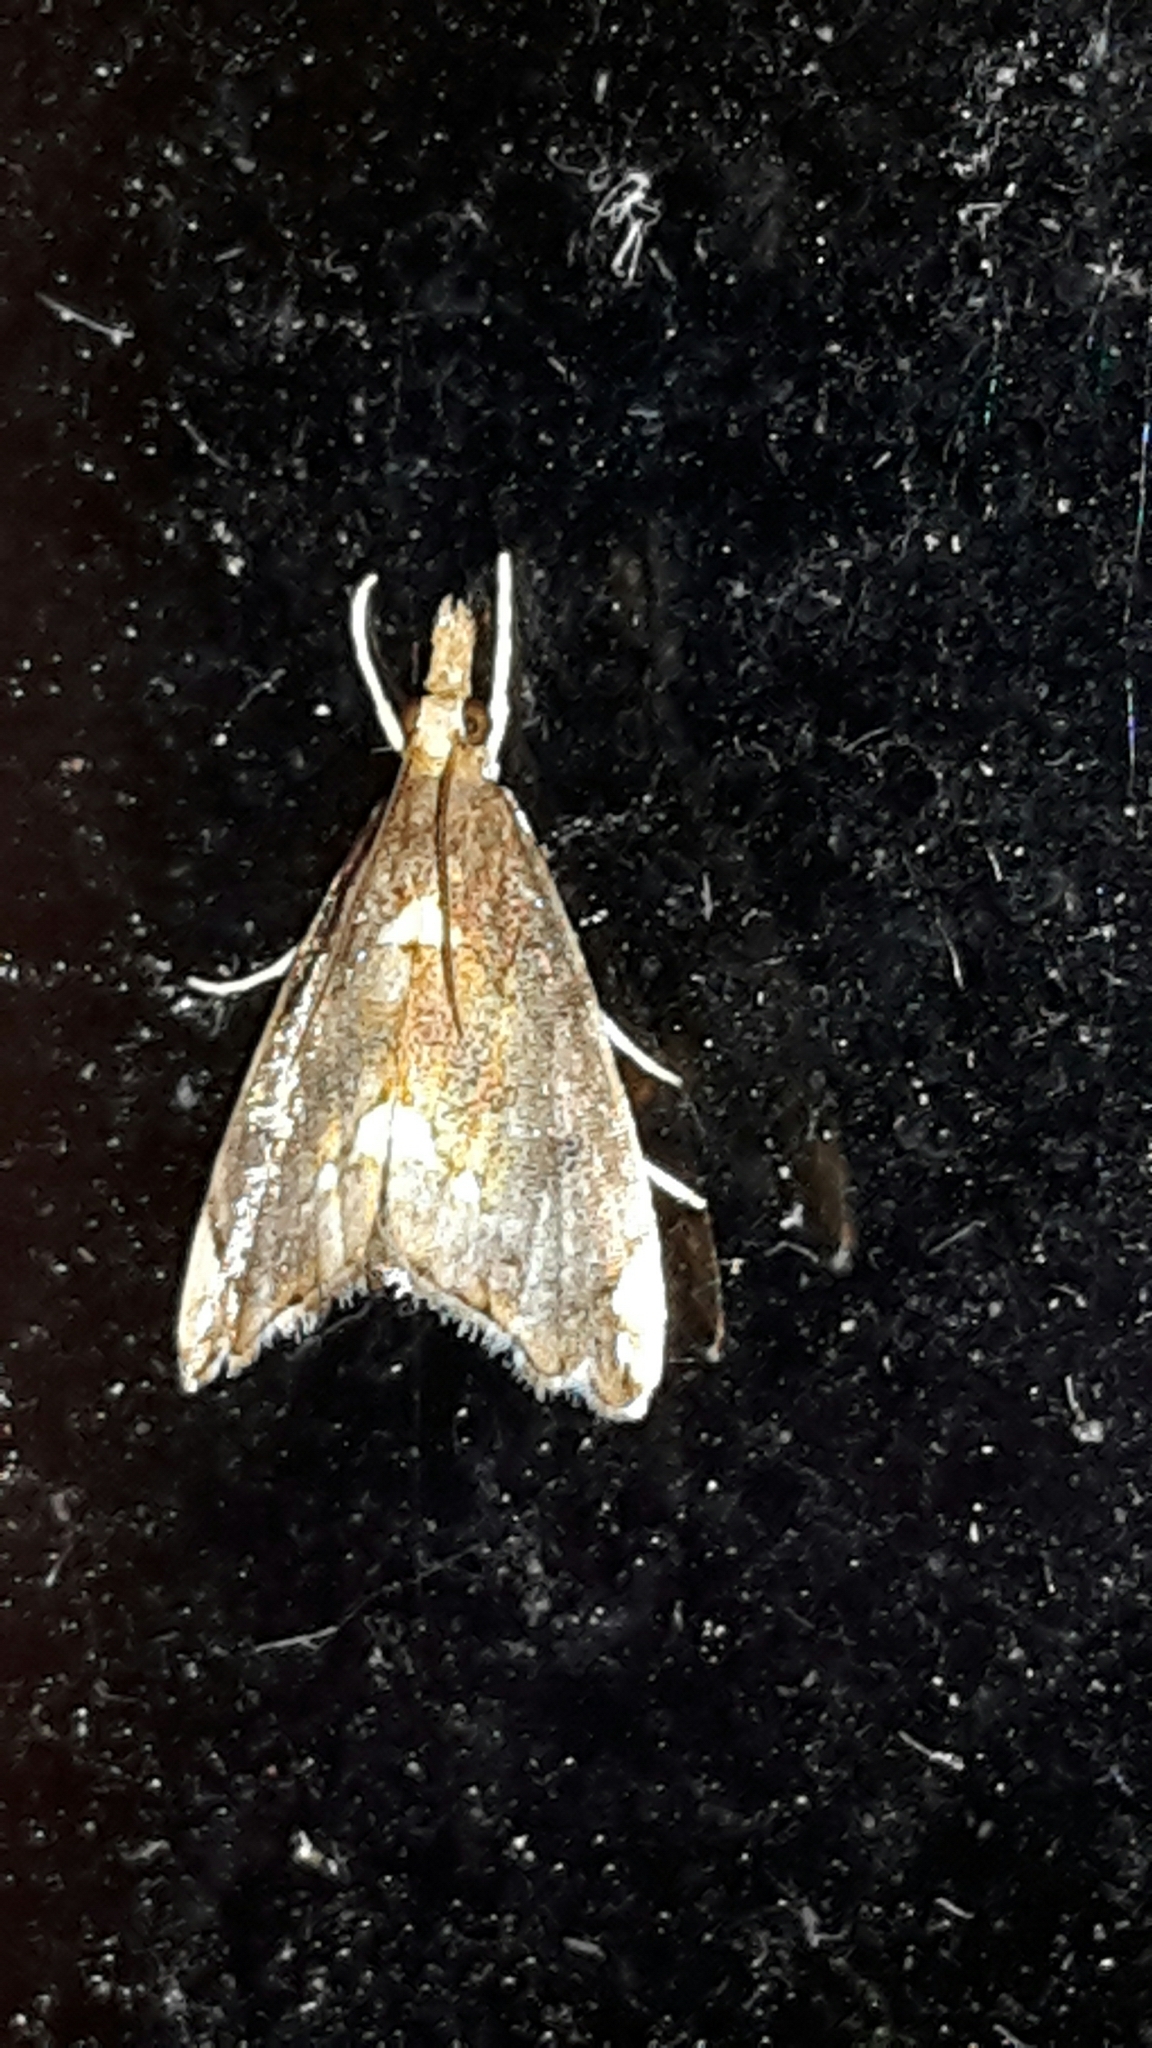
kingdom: Animalia
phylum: Arthropoda
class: Insecta
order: Lepidoptera
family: Crambidae
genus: Glaucocharis
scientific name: Glaucocharis pyrsophanes
